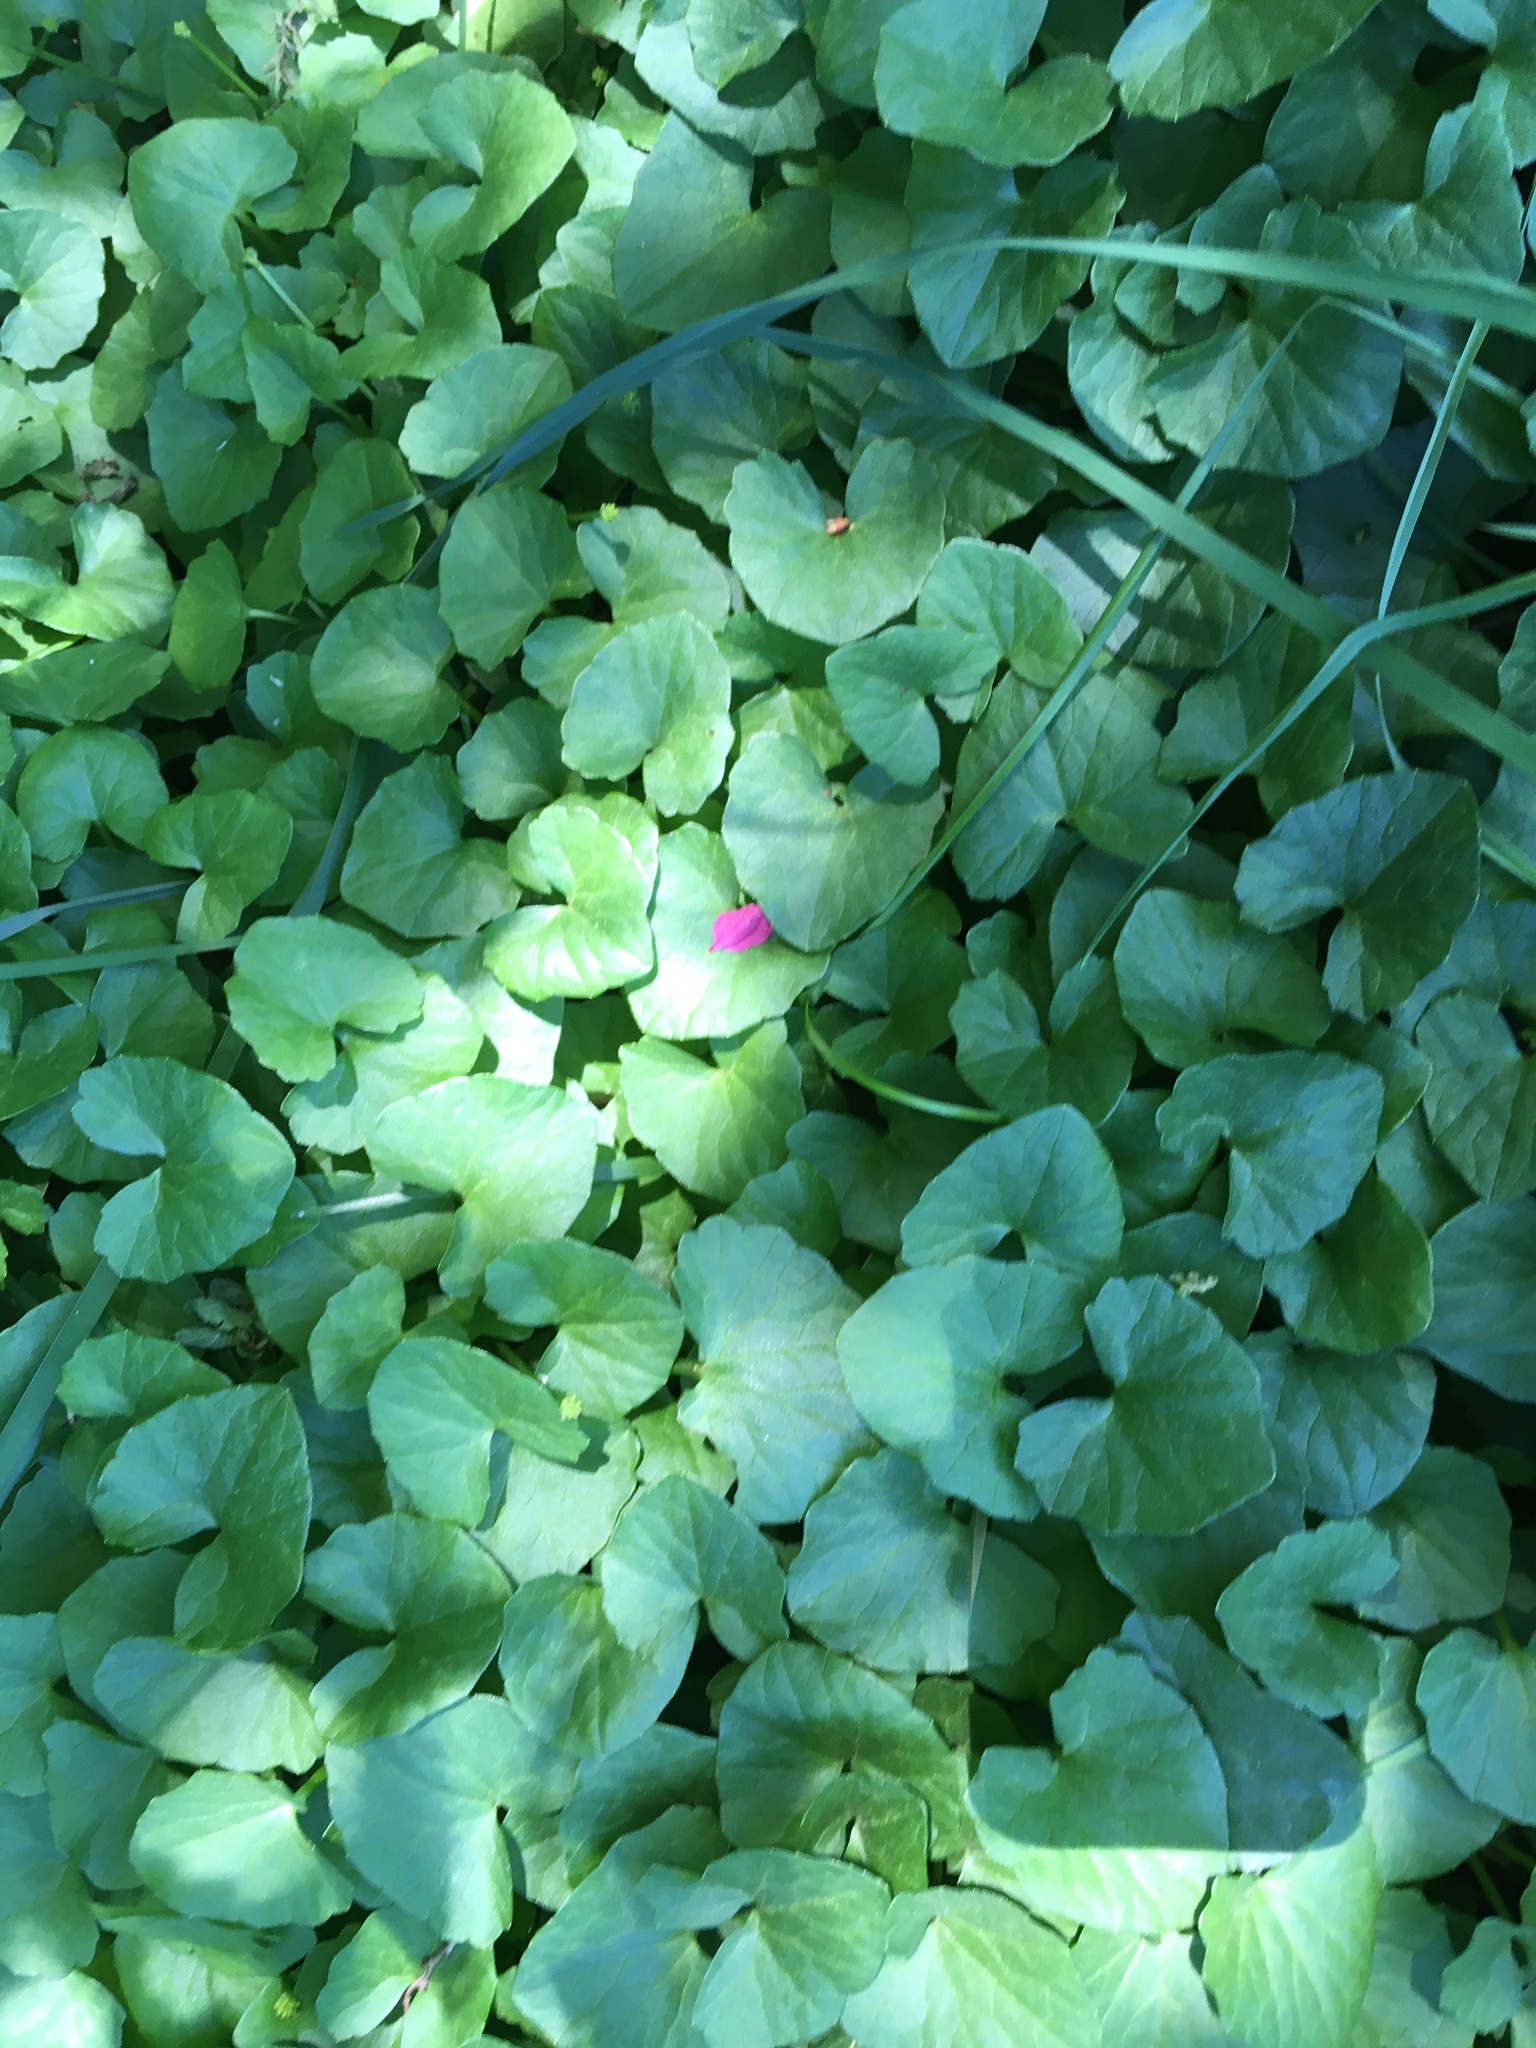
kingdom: Plantae
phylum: Tracheophyta
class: Magnoliopsida
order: Ranunculales
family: Ranunculaceae
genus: Ficaria
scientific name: Ficaria verna
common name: Lesser celandine
